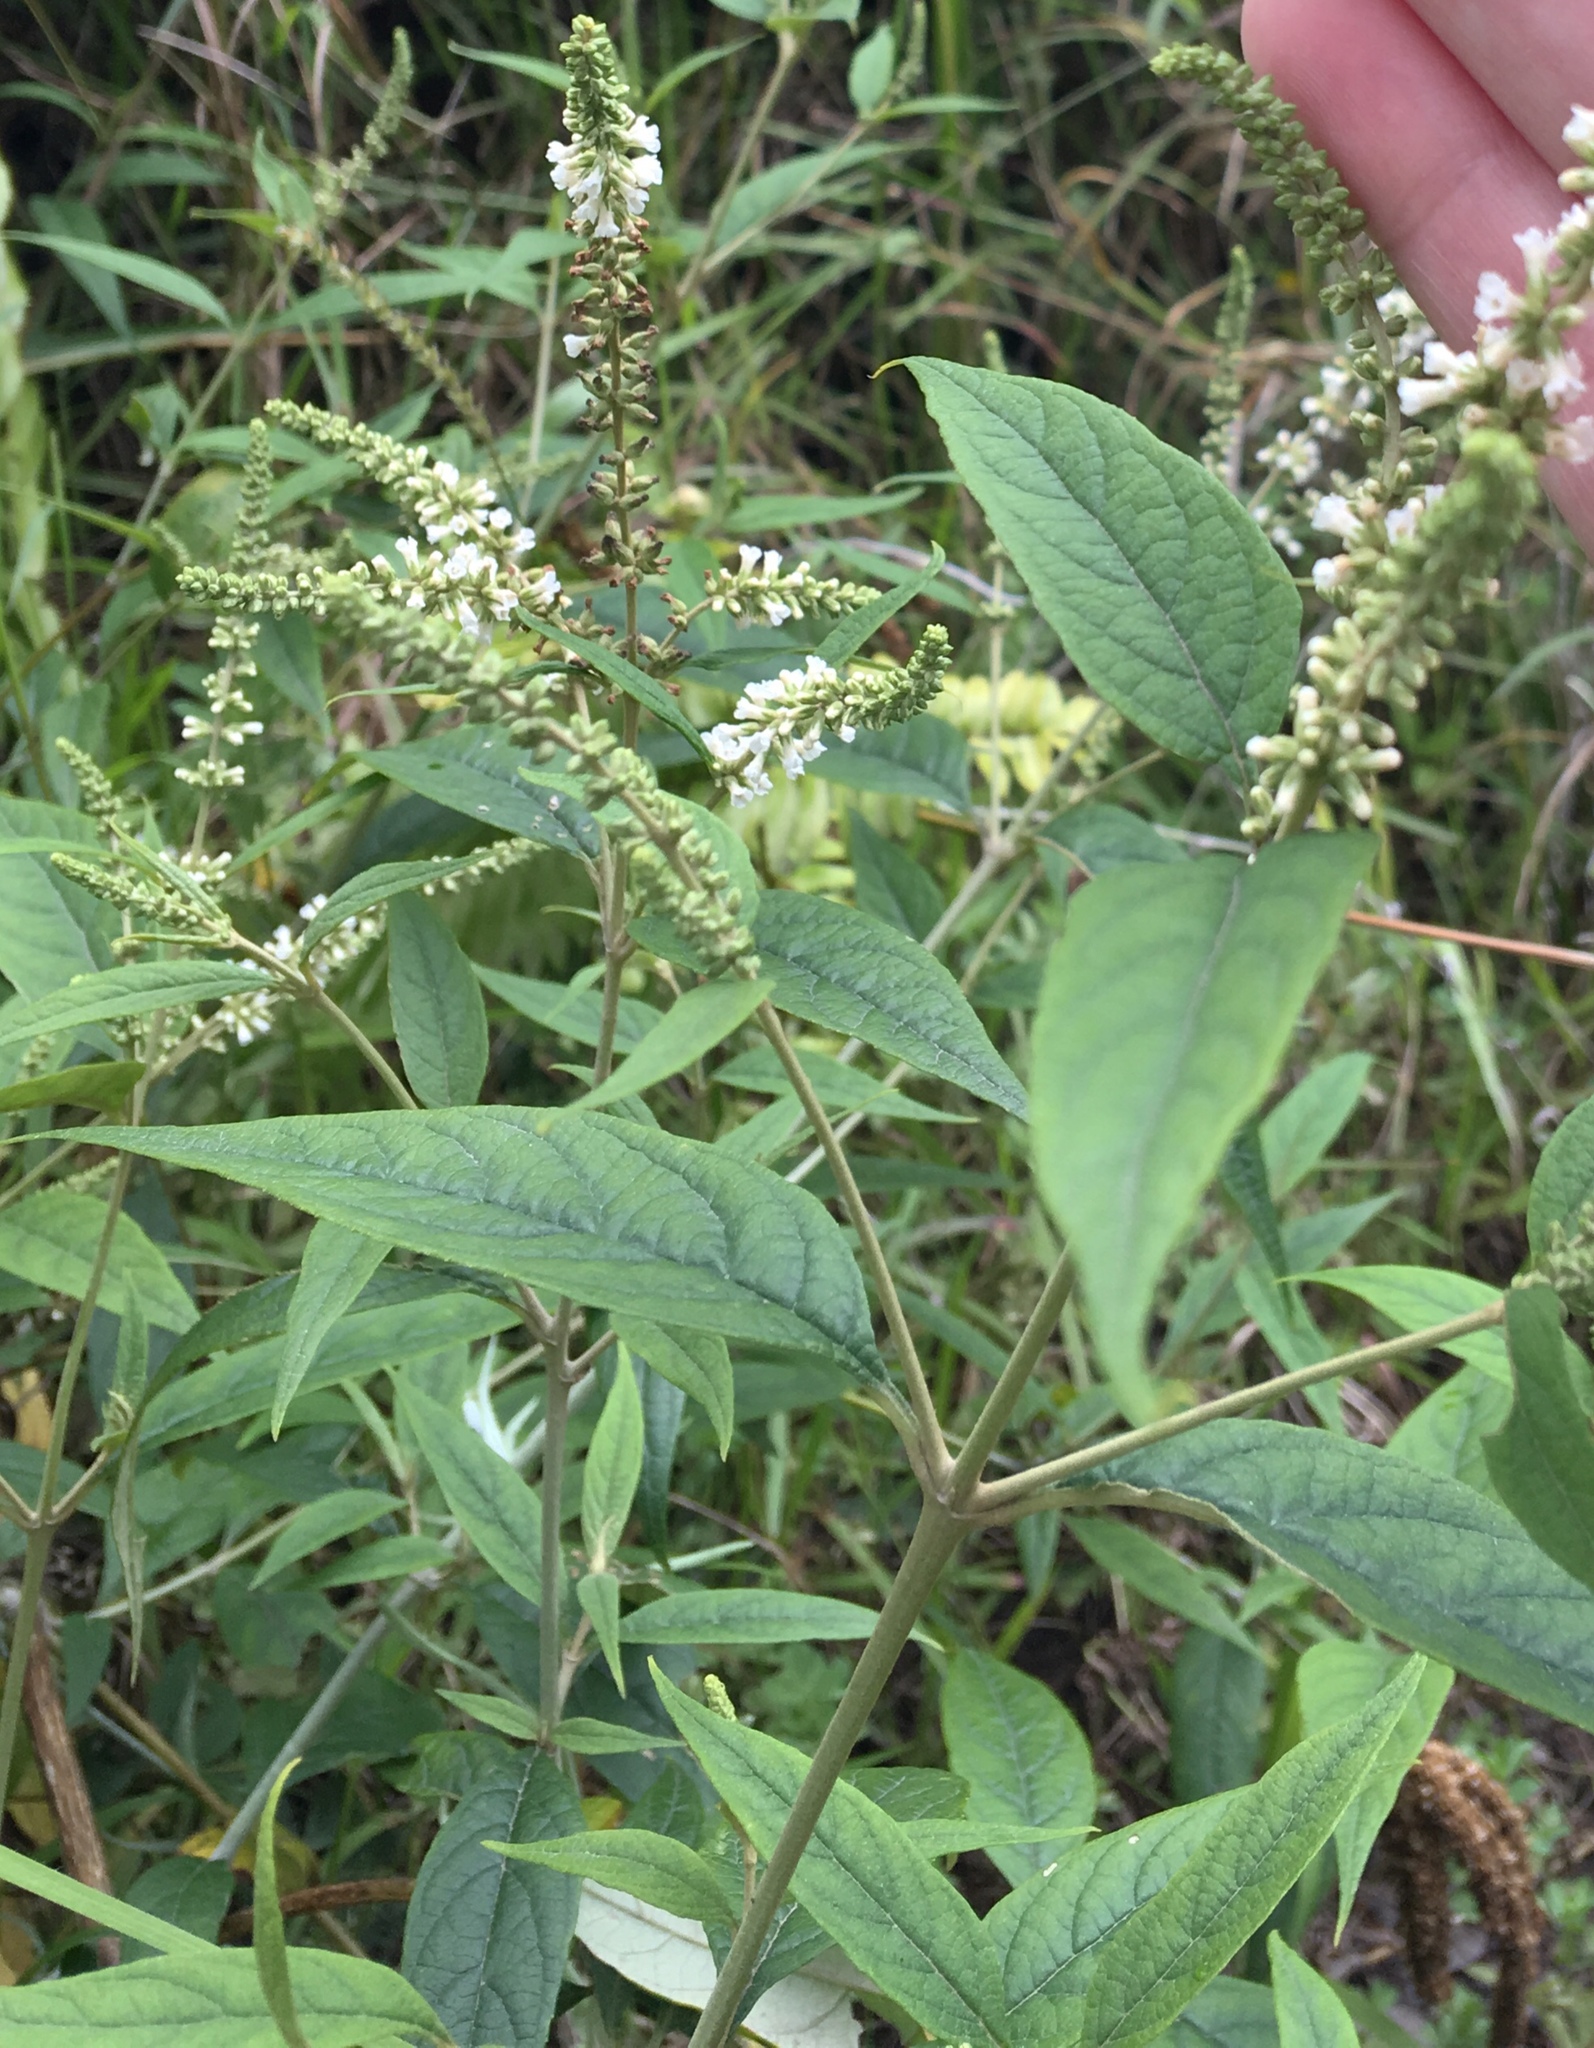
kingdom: Plantae
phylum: Tracheophyta
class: Magnoliopsida
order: Lamiales
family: Scrophulariaceae
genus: Buddleja
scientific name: Buddleja asiatica
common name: Dog tail
